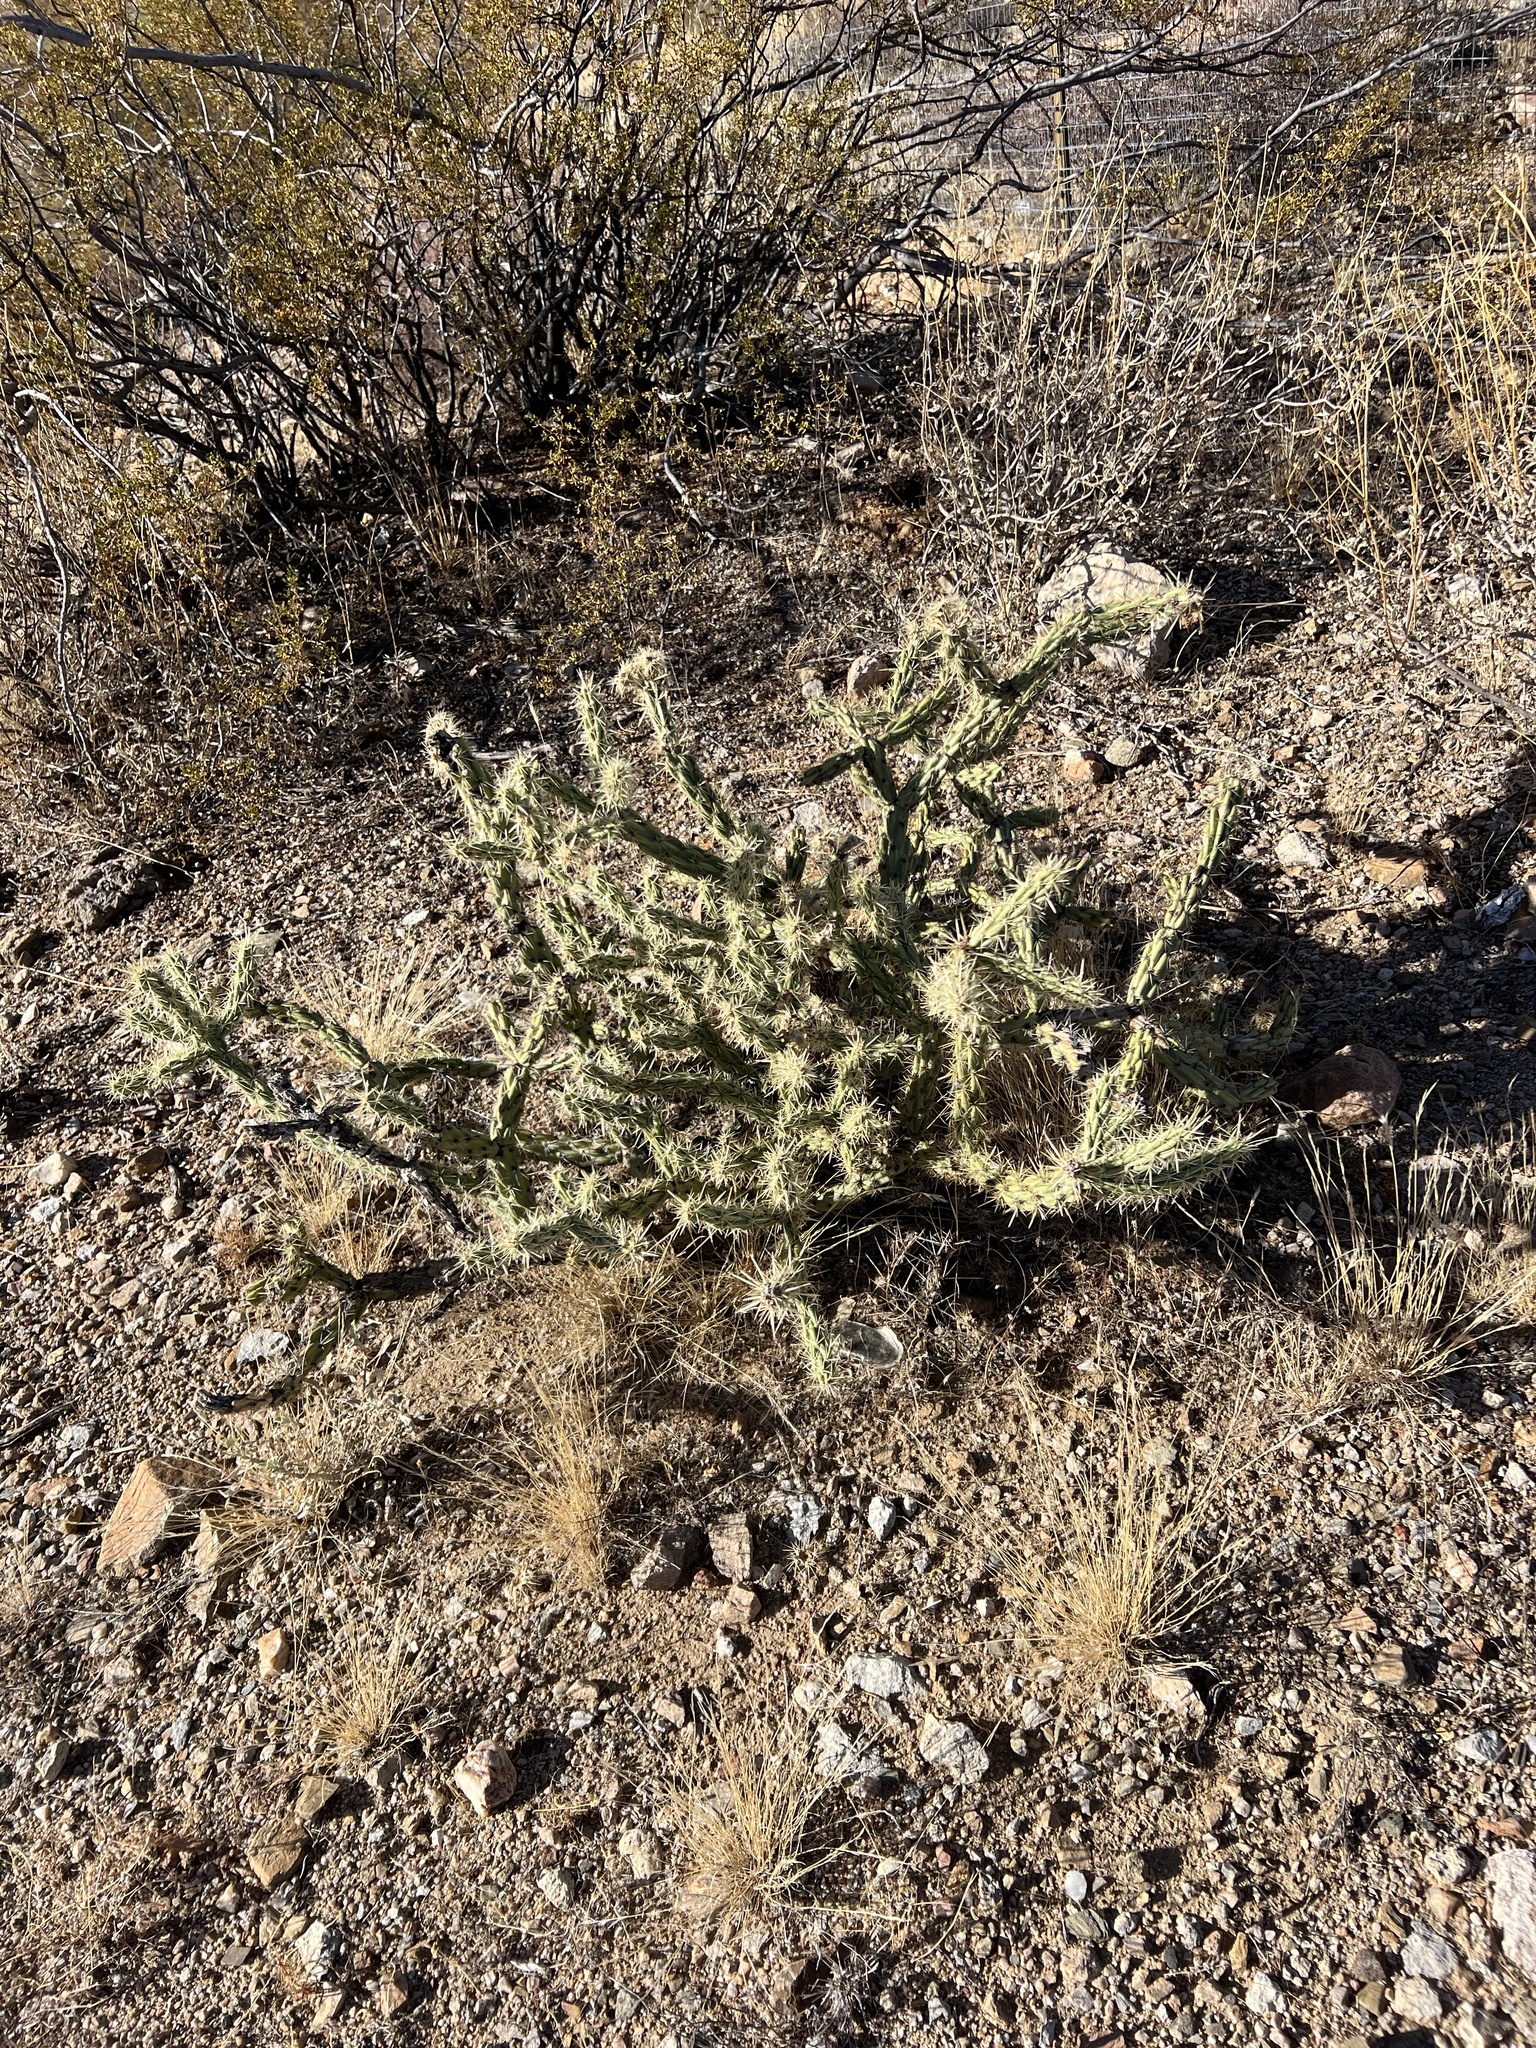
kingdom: Plantae
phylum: Tracheophyta
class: Magnoliopsida
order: Caryophyllales
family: Cactaceae
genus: Cylindropuntia
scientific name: Cylindropuntia acanthocarpa
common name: Buckhorn cholla
